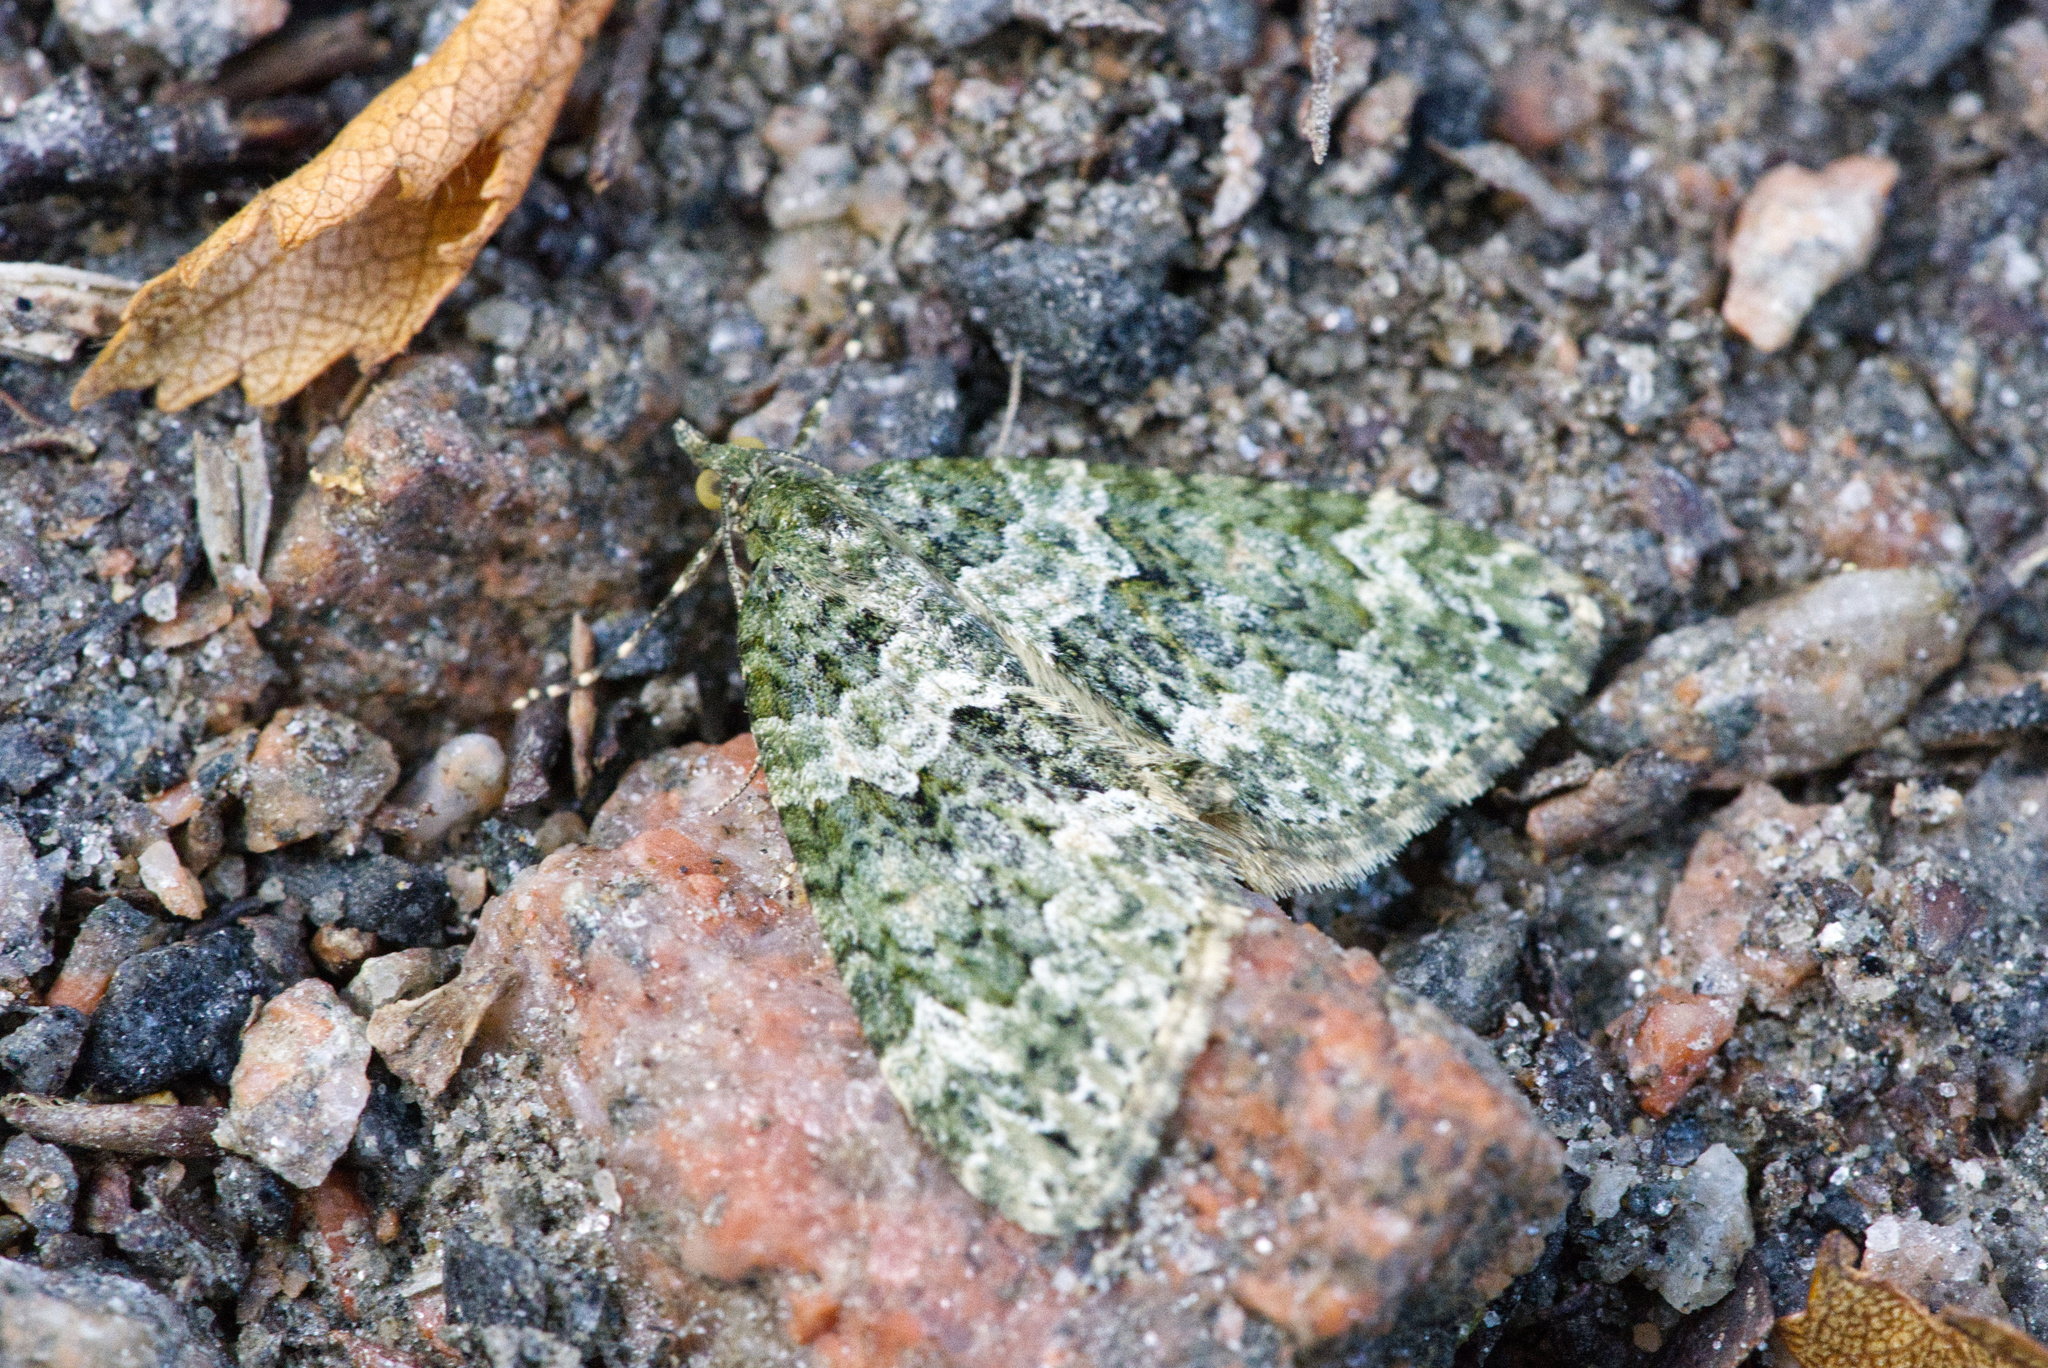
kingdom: Animalia
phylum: Arthropoda
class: Insecta
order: Lepidoptera
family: Geometridae
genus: Chloroclysta
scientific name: Chloroclysta miata
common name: Autumn green carpet
